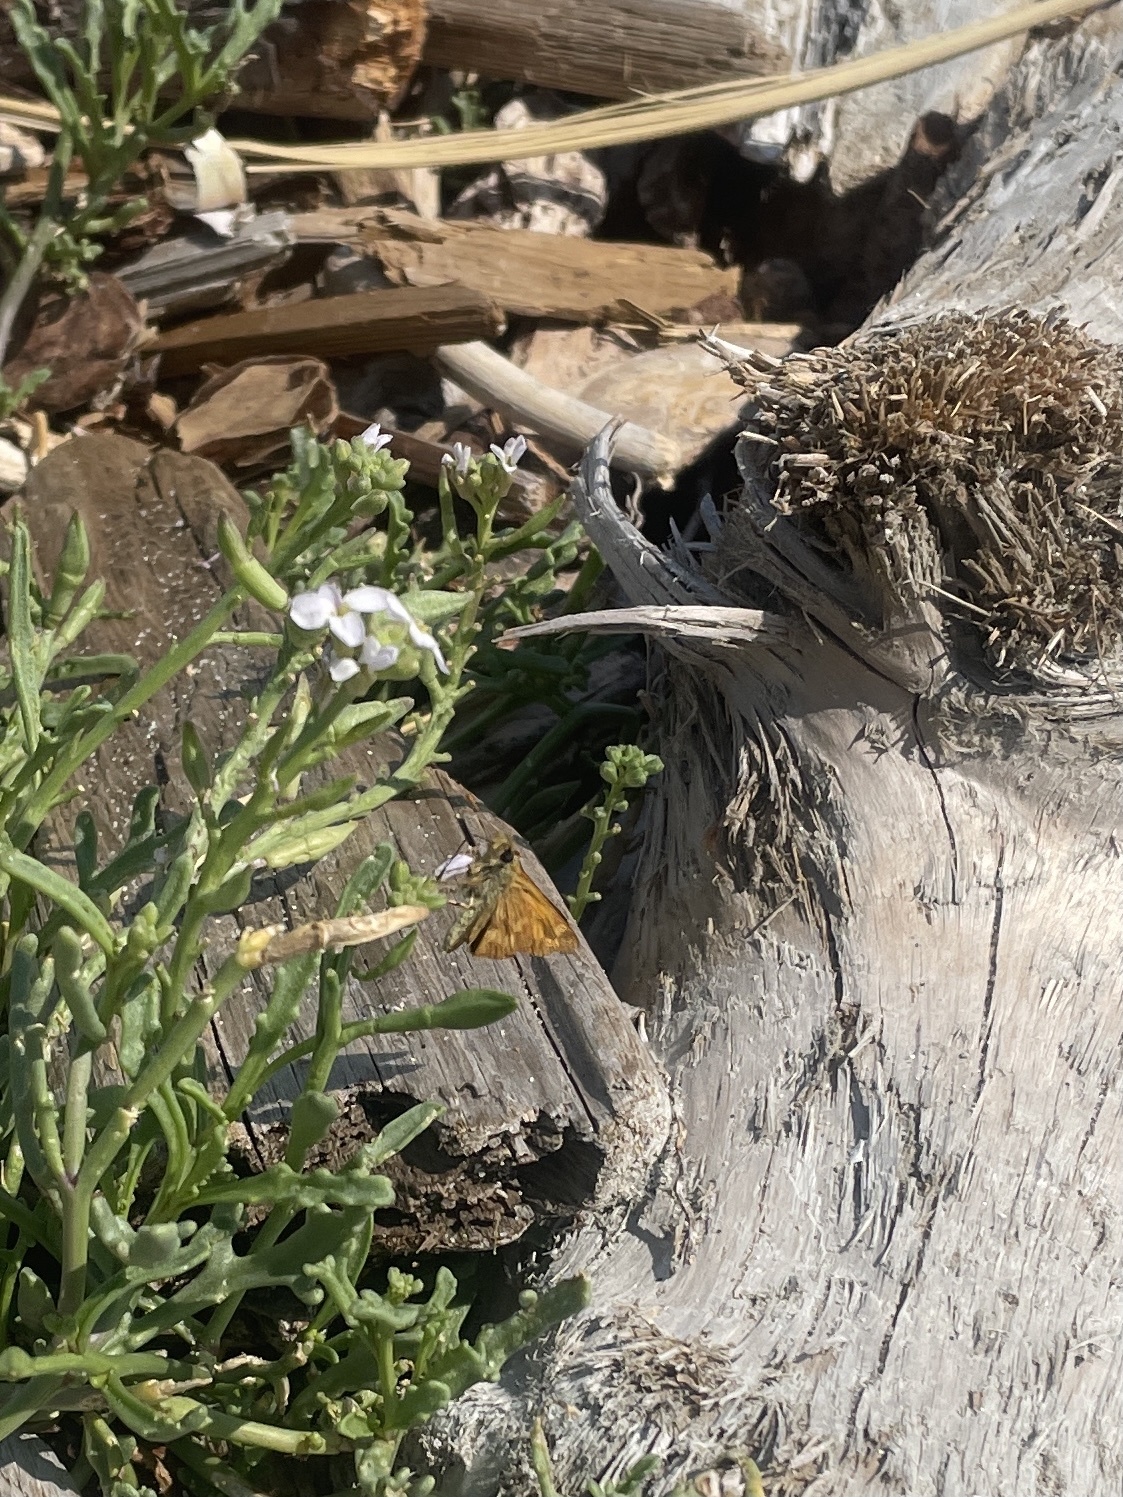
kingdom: Animalia
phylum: Arthropoda
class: Insecta
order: Lepidoptera
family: Hesperiidae
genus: Ochlodes
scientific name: Ochlodes sylvanoides
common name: Woodland skipper
